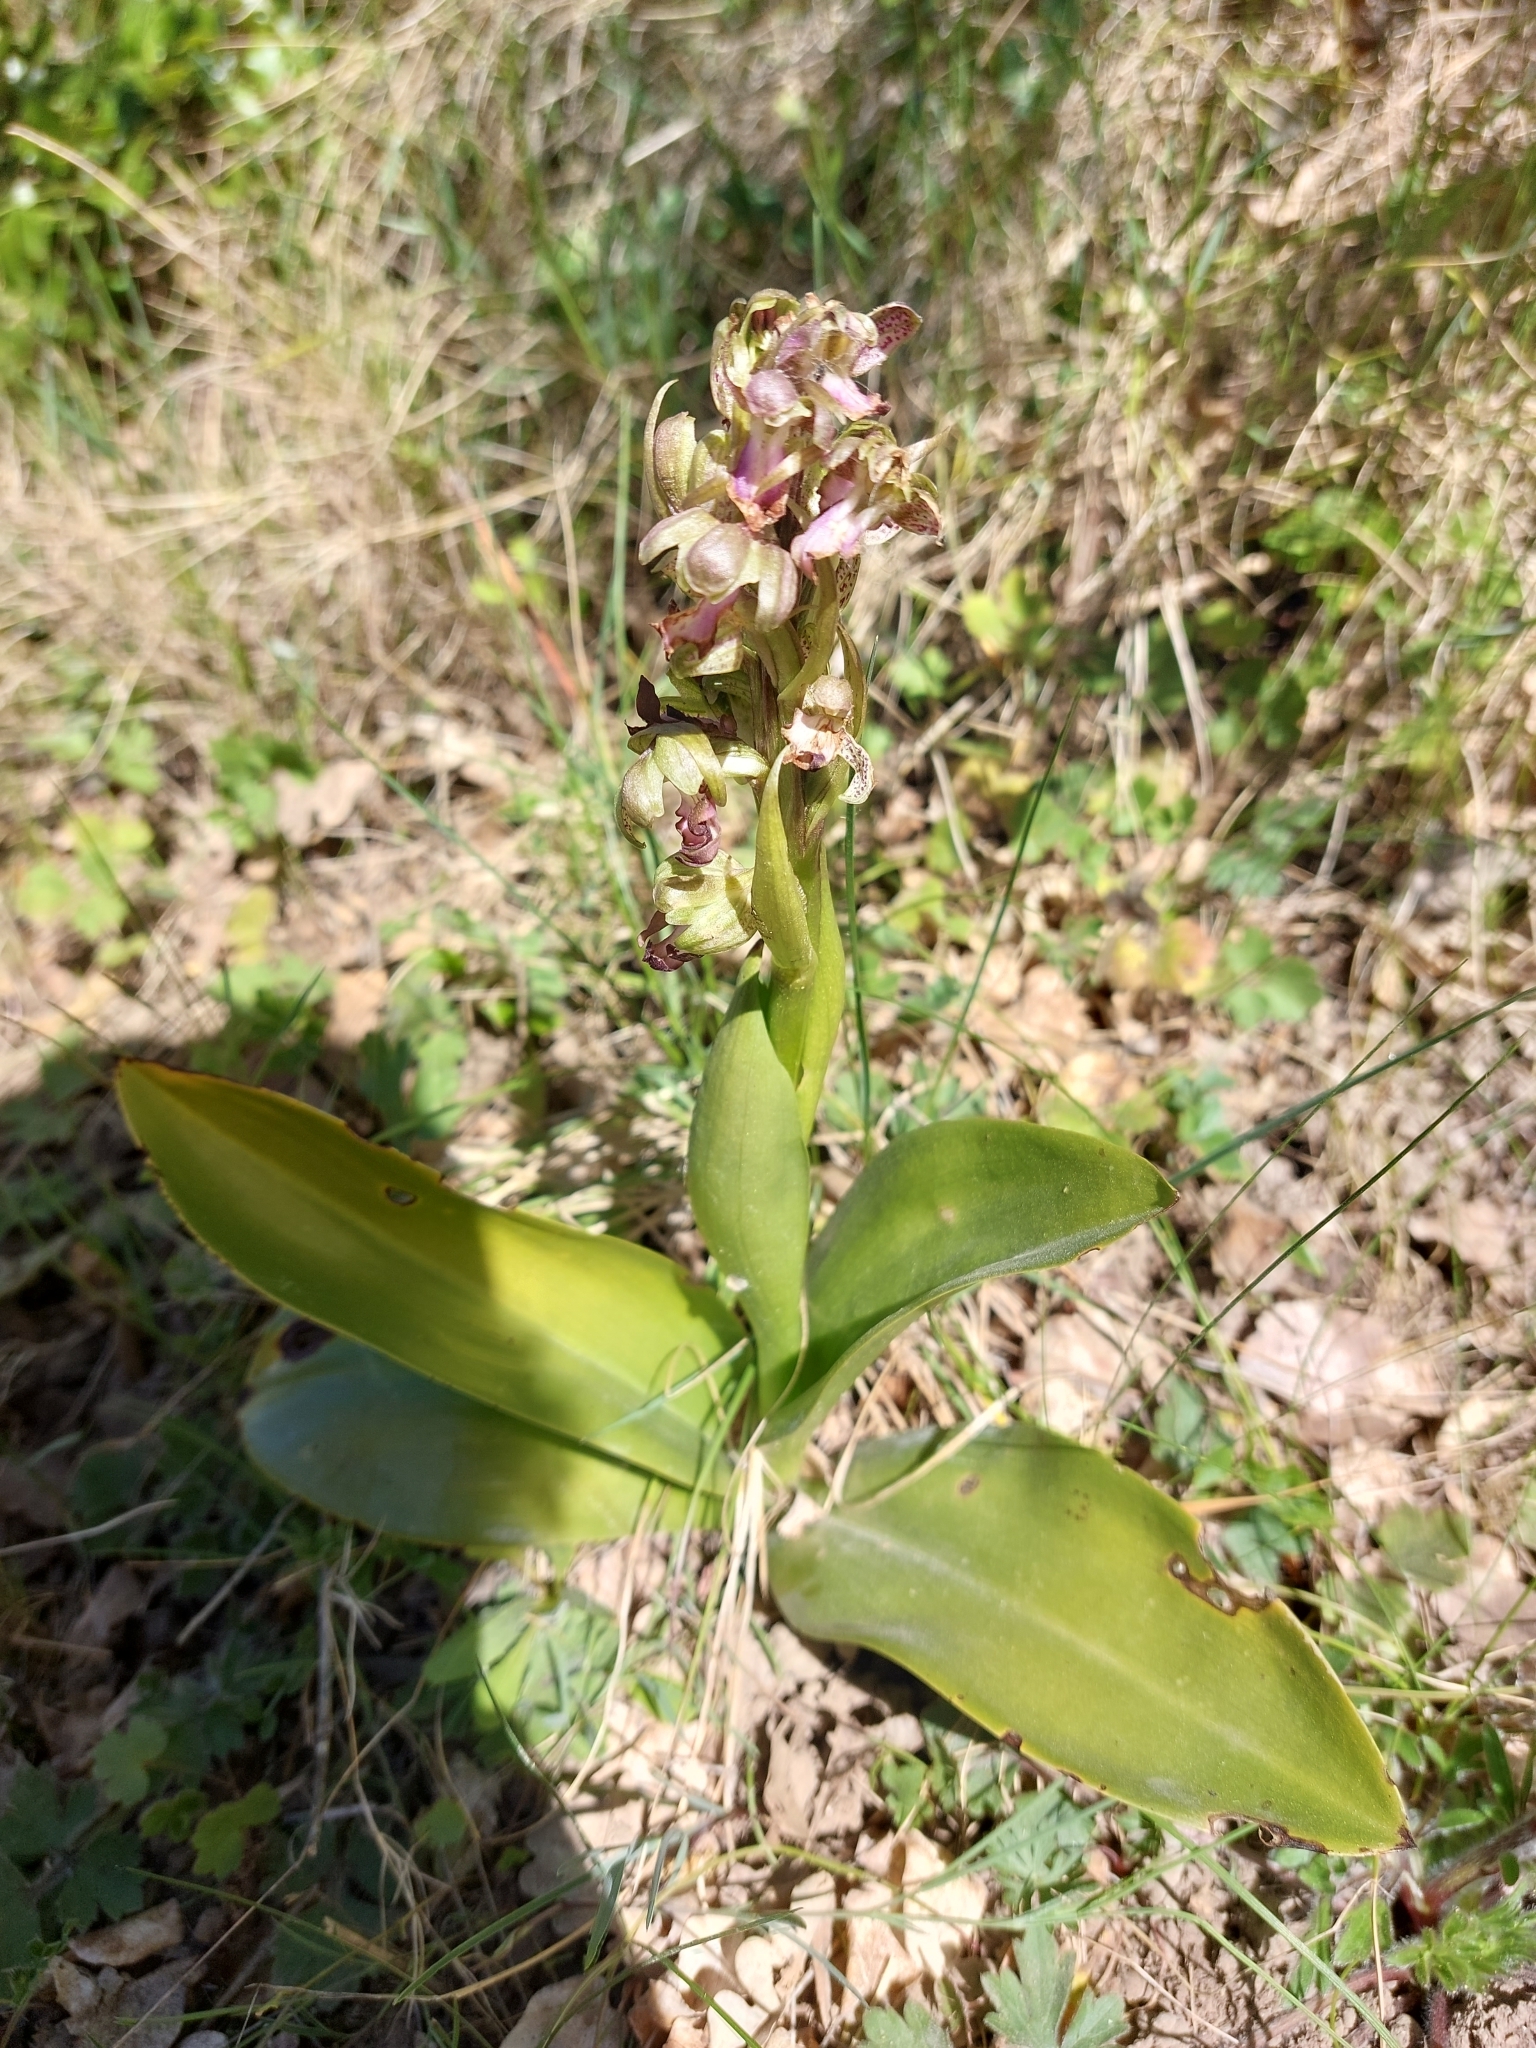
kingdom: Plantae
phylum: Tracheophyta
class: Liliopsida
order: Asparagales
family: Orchidaceae
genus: Himantoglossum
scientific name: Himantoglossum robertianum
